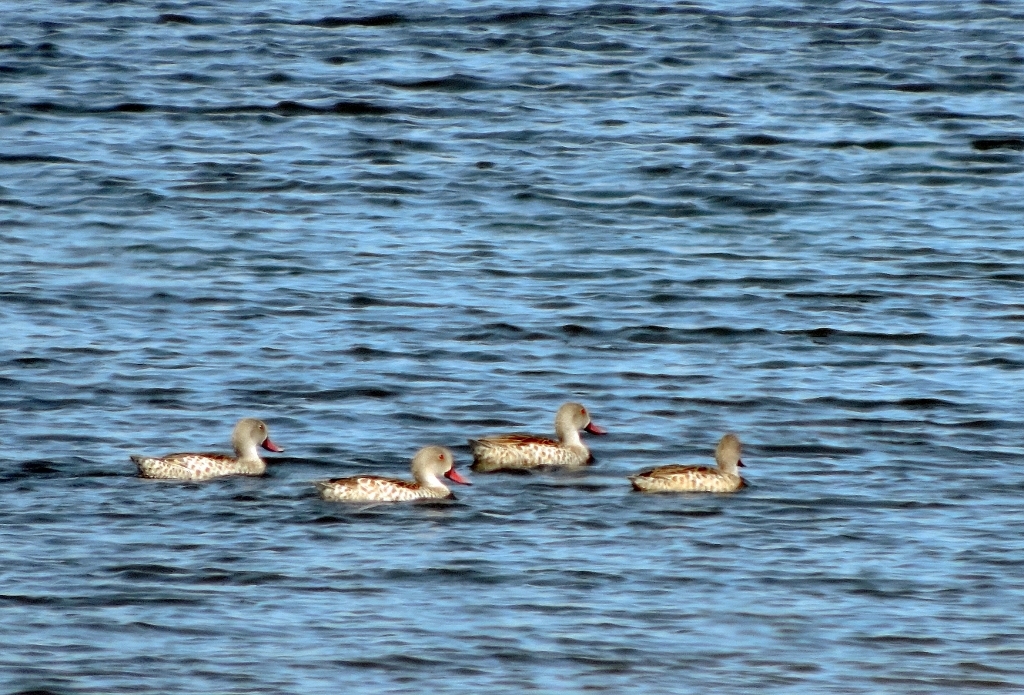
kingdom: Animalia
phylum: Chordata
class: Aves
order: Anseriformes
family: Anatidae
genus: Anas
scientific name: Anas capensis
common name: Cape teal
